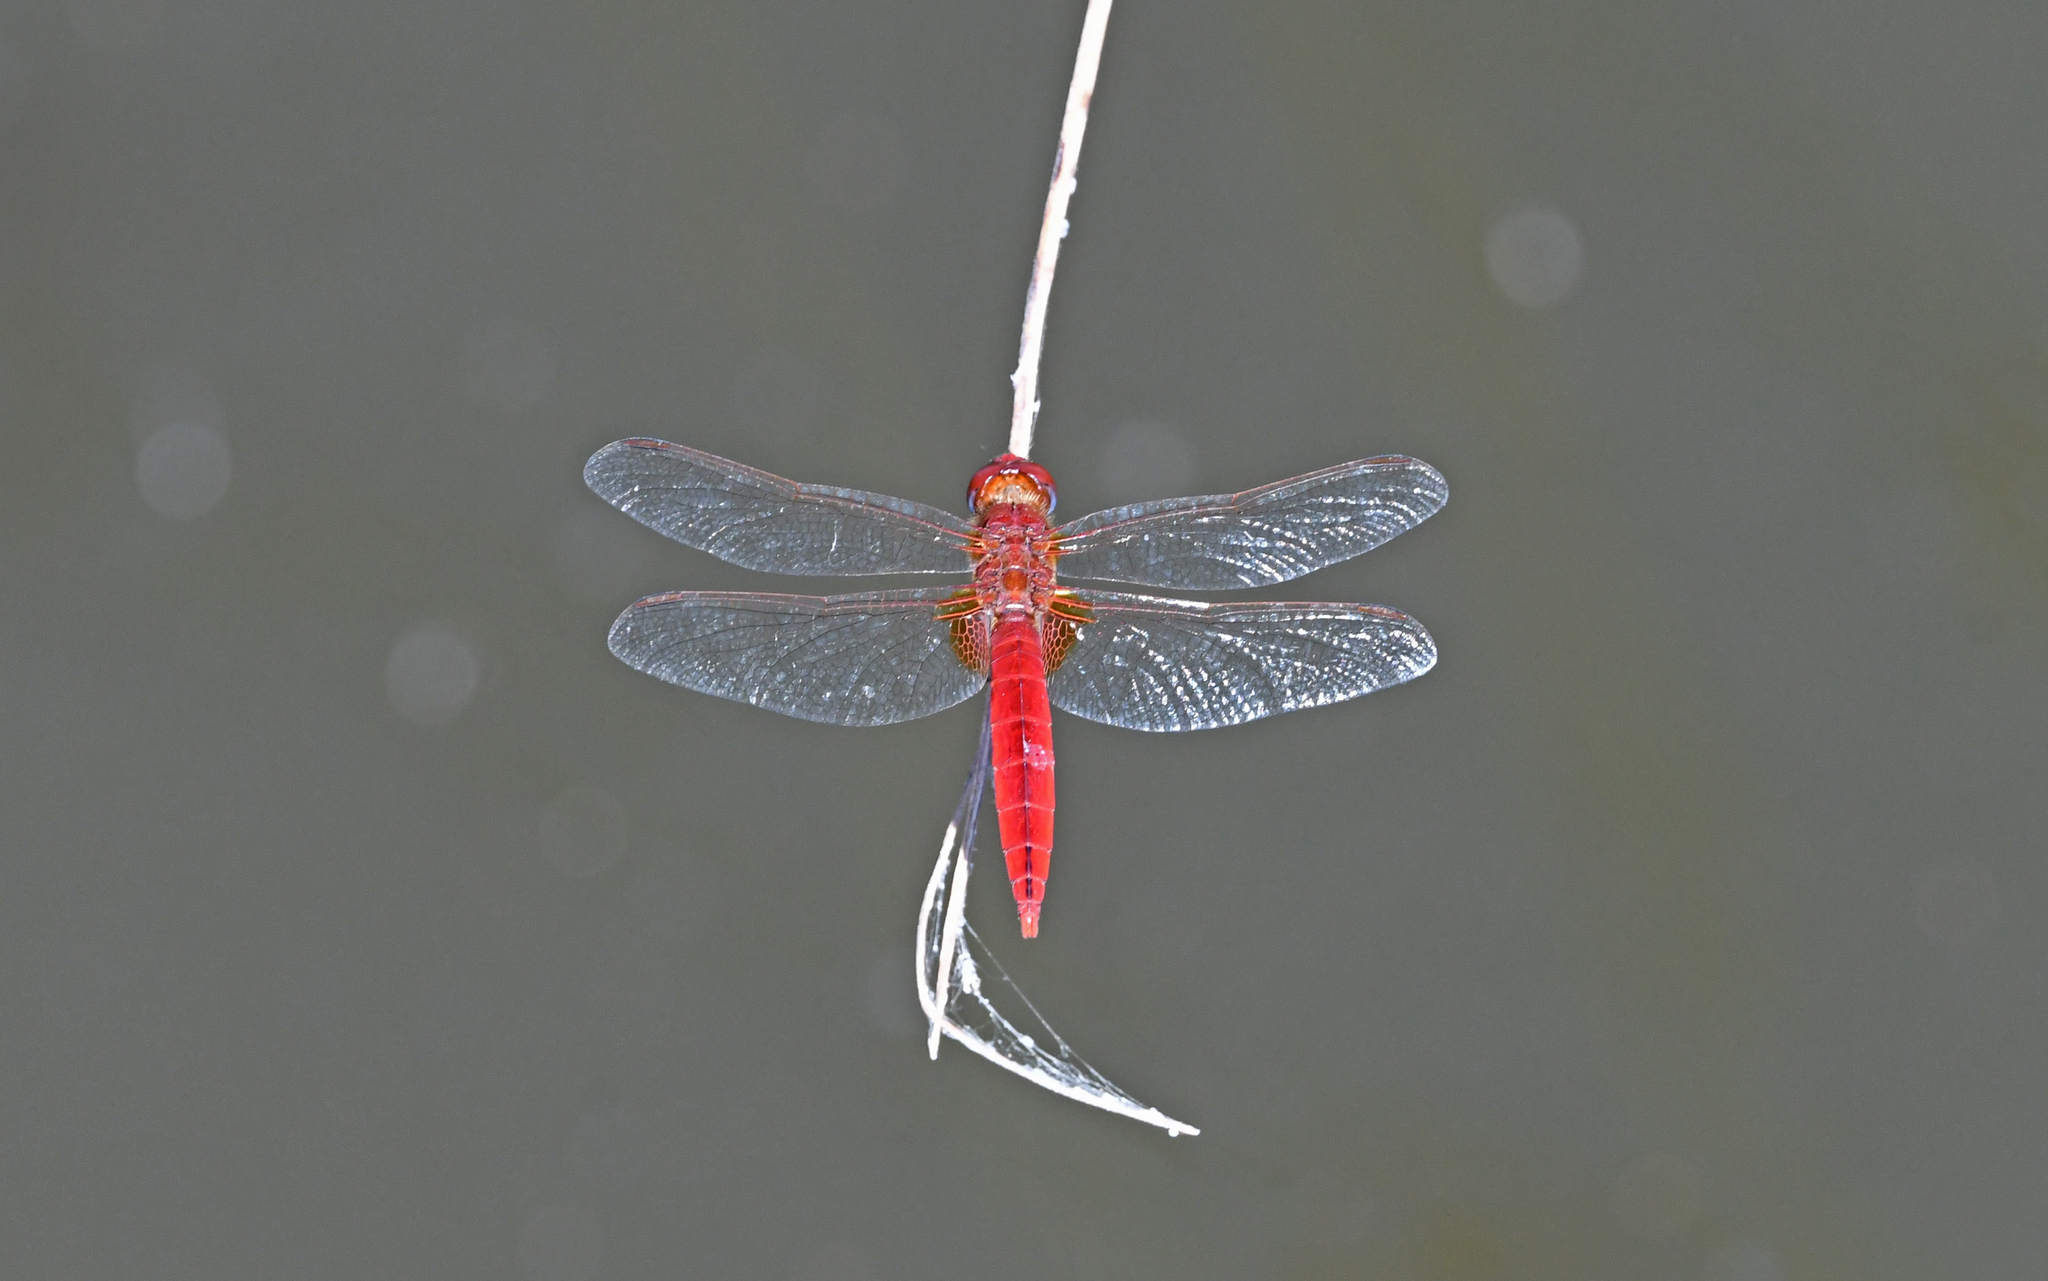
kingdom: Animalia
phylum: Arthropoda
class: Insecta
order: Odonata
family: Libellulidae
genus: Crocothemis
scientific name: Crocothemis erythraea
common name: Scarlet dragonfly
